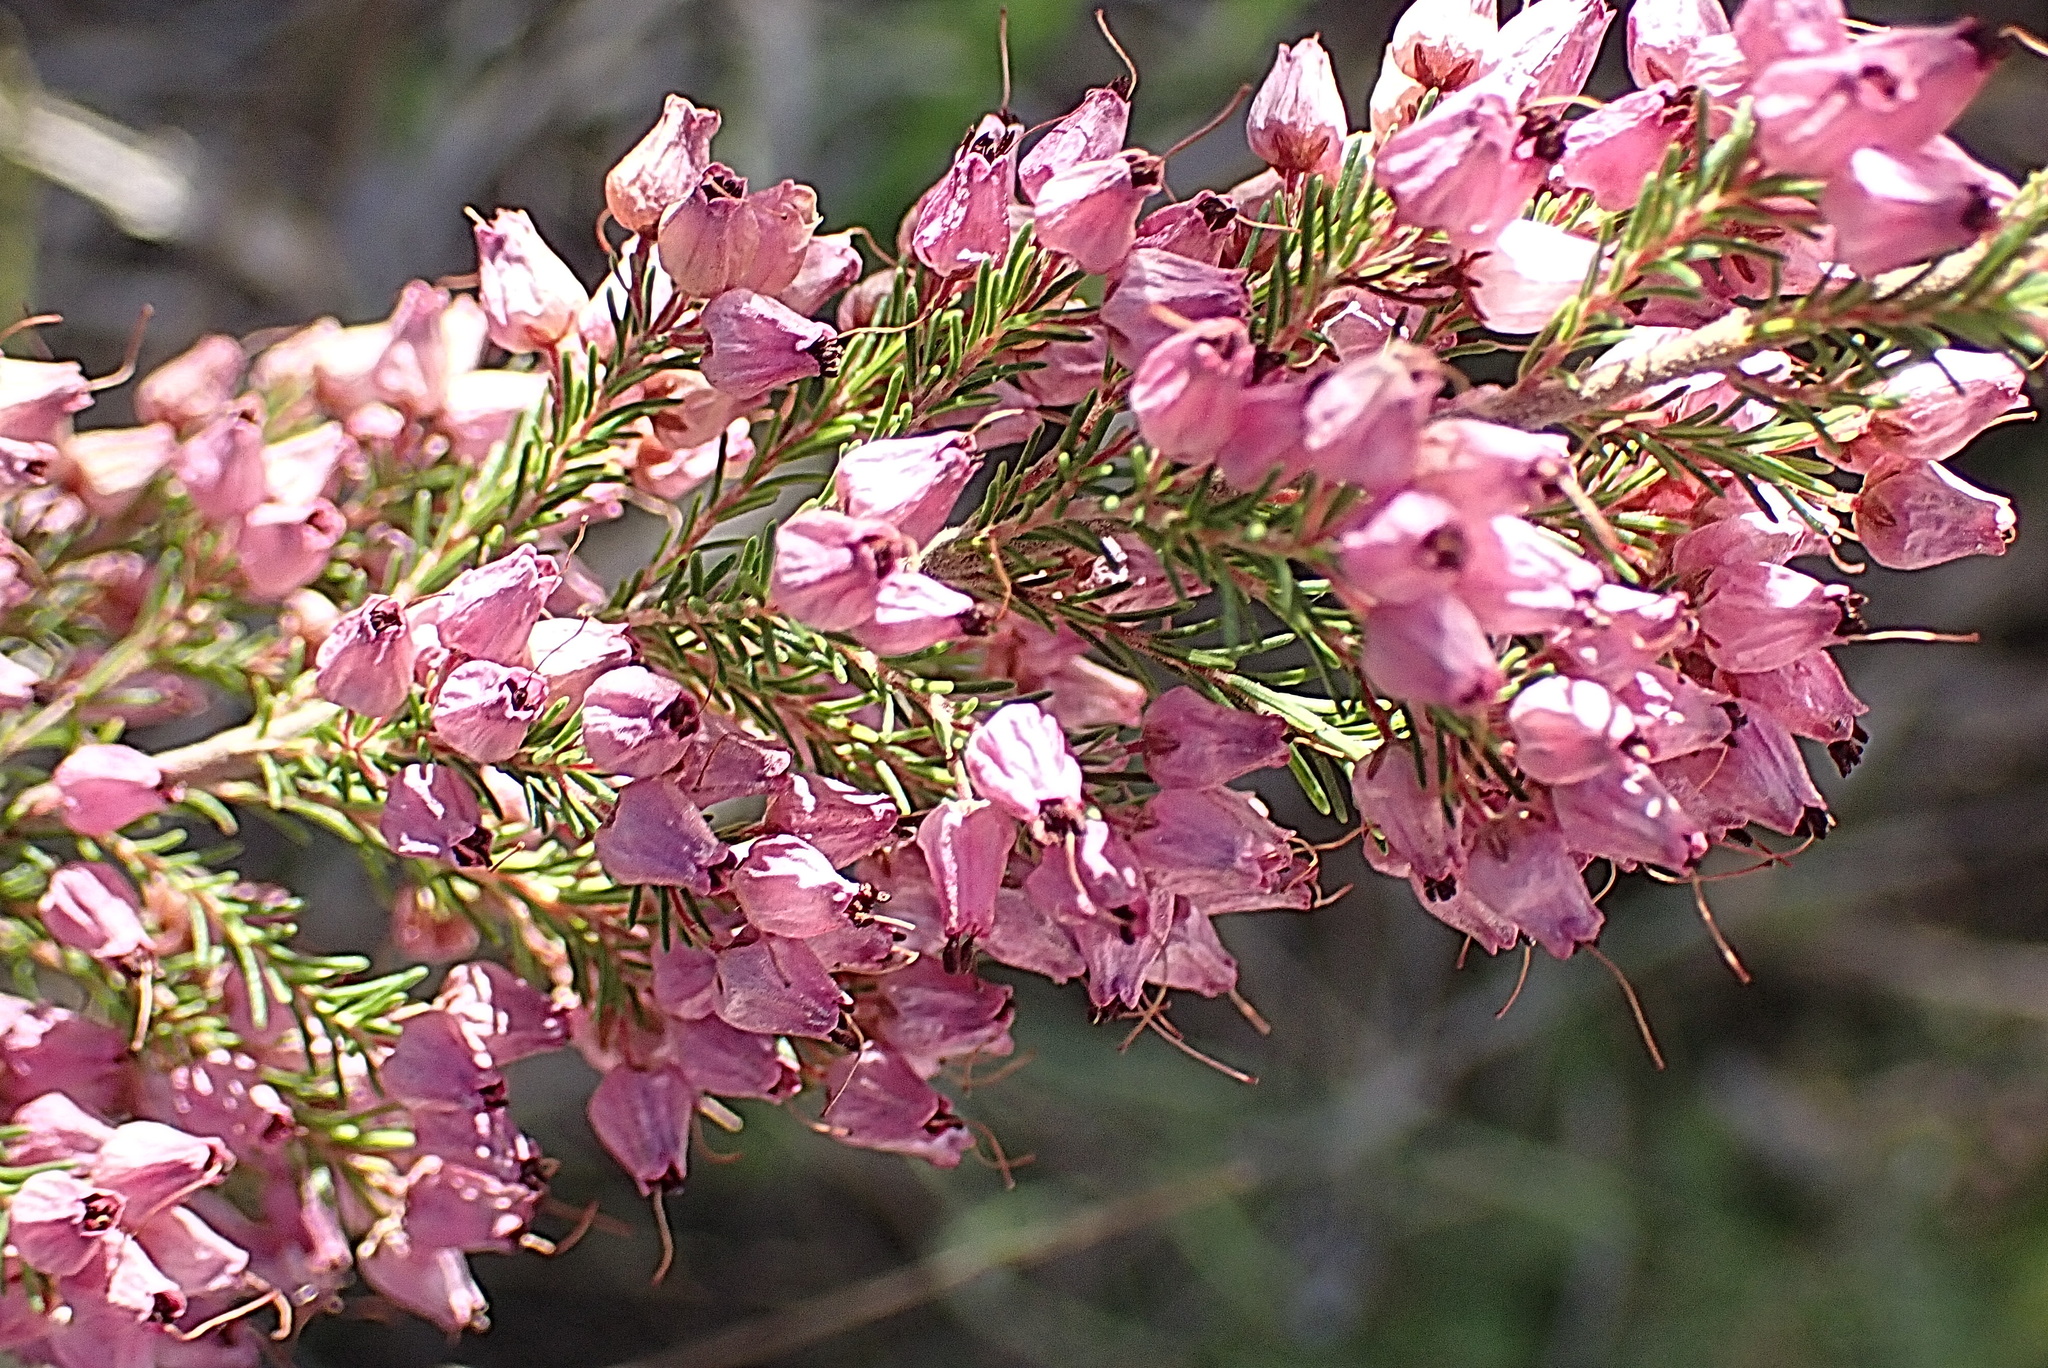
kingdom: Plantae
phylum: Tracheophyta
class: Magnoliopsida
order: Ericales
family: Ericaceae
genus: Erica
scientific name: Erica nutans
